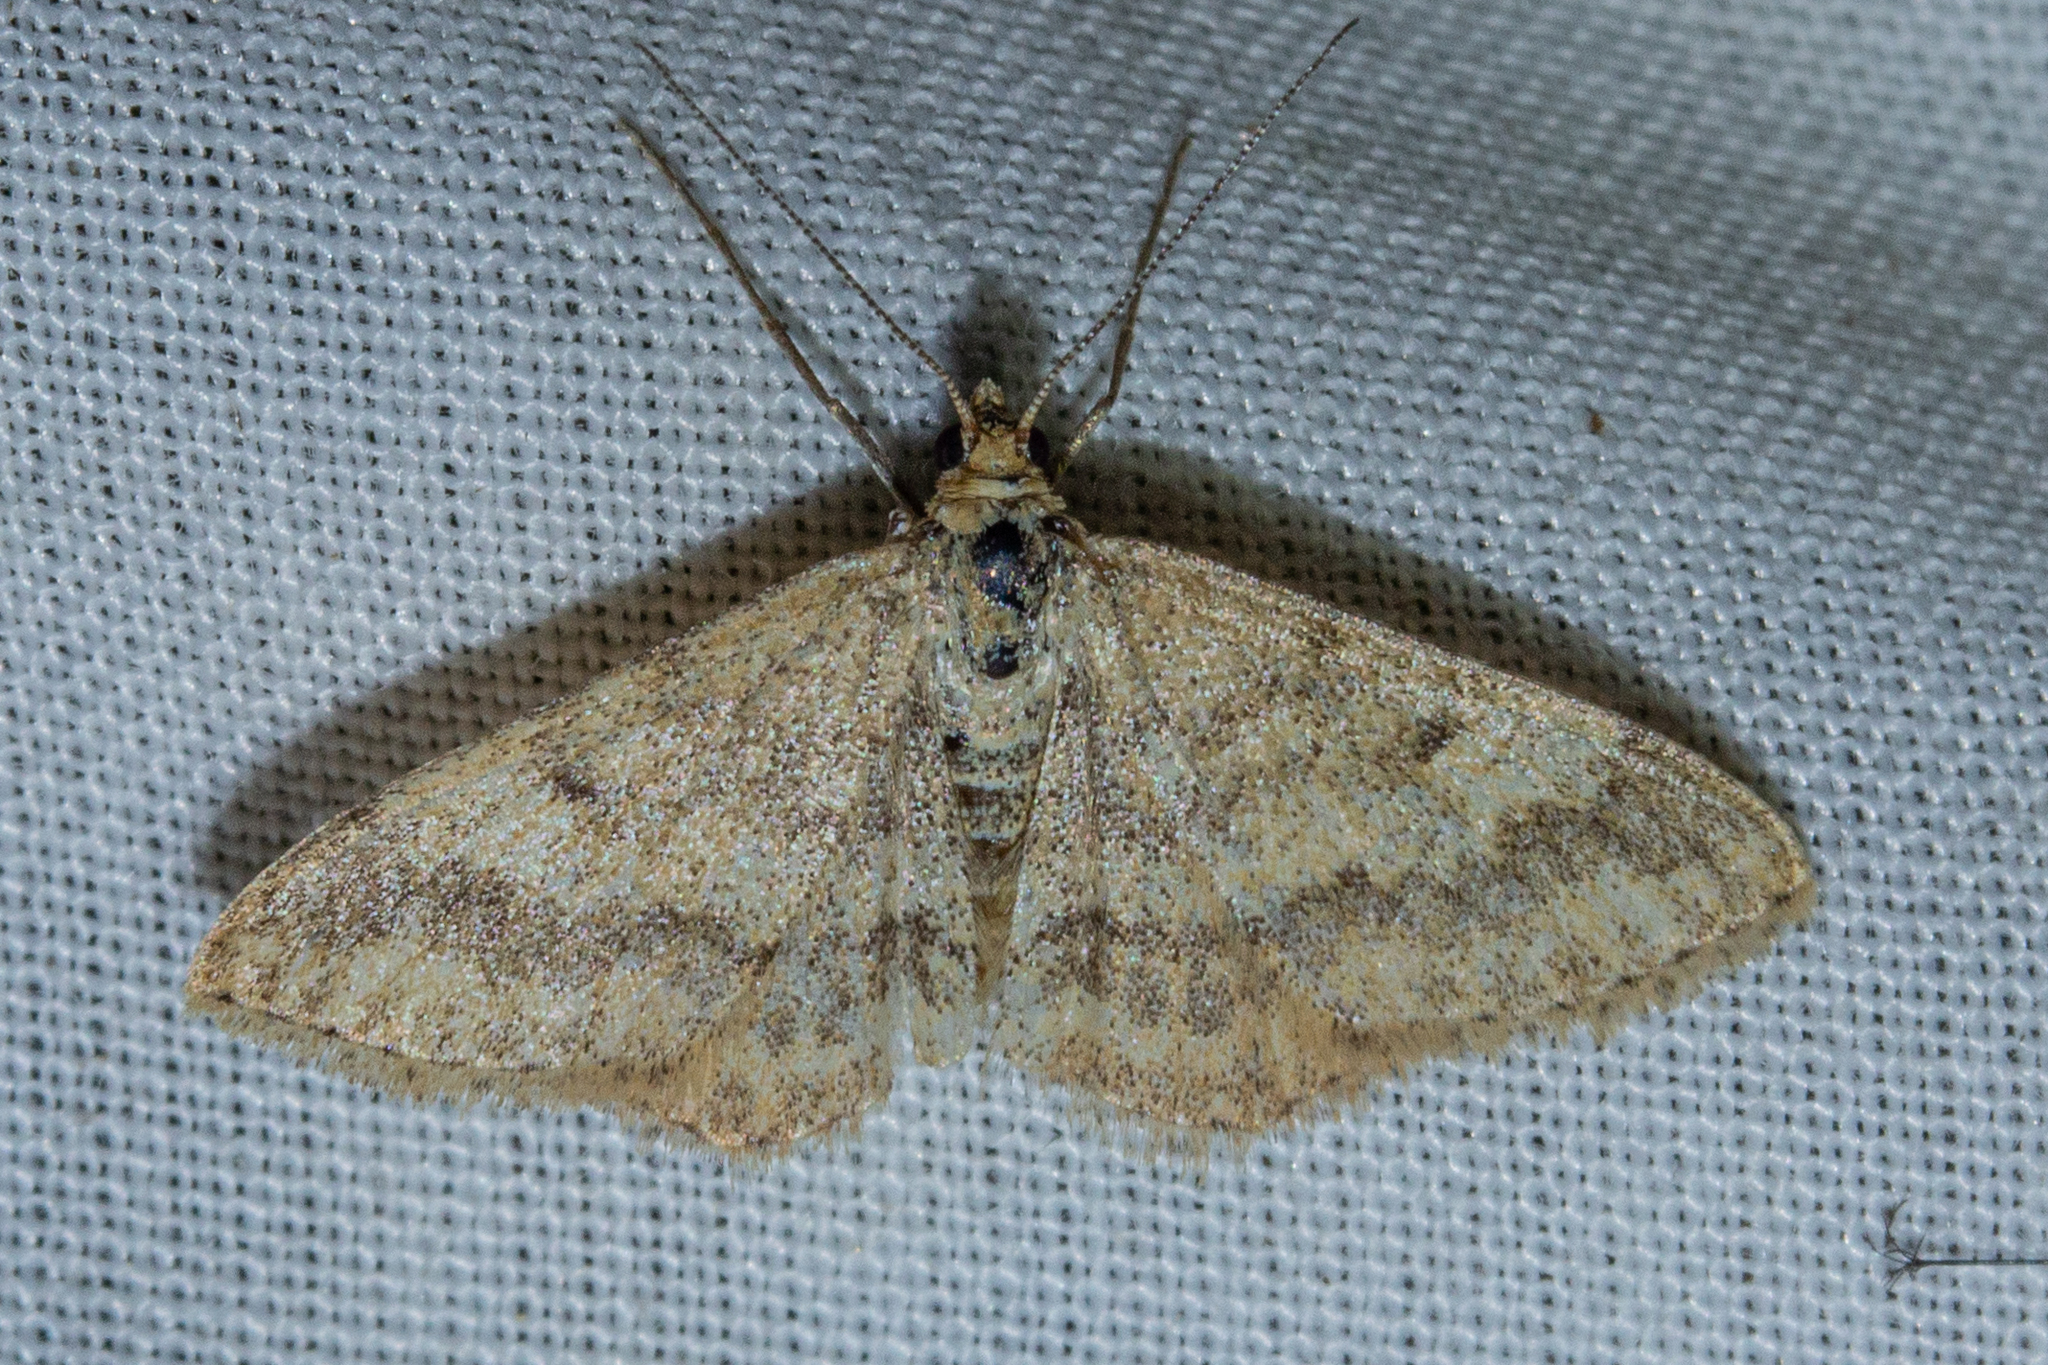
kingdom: Animalia
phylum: Arthropoda
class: Insecta
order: Lepidoptera
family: Geometridae
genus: Scopula
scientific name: Scopula rubraria
